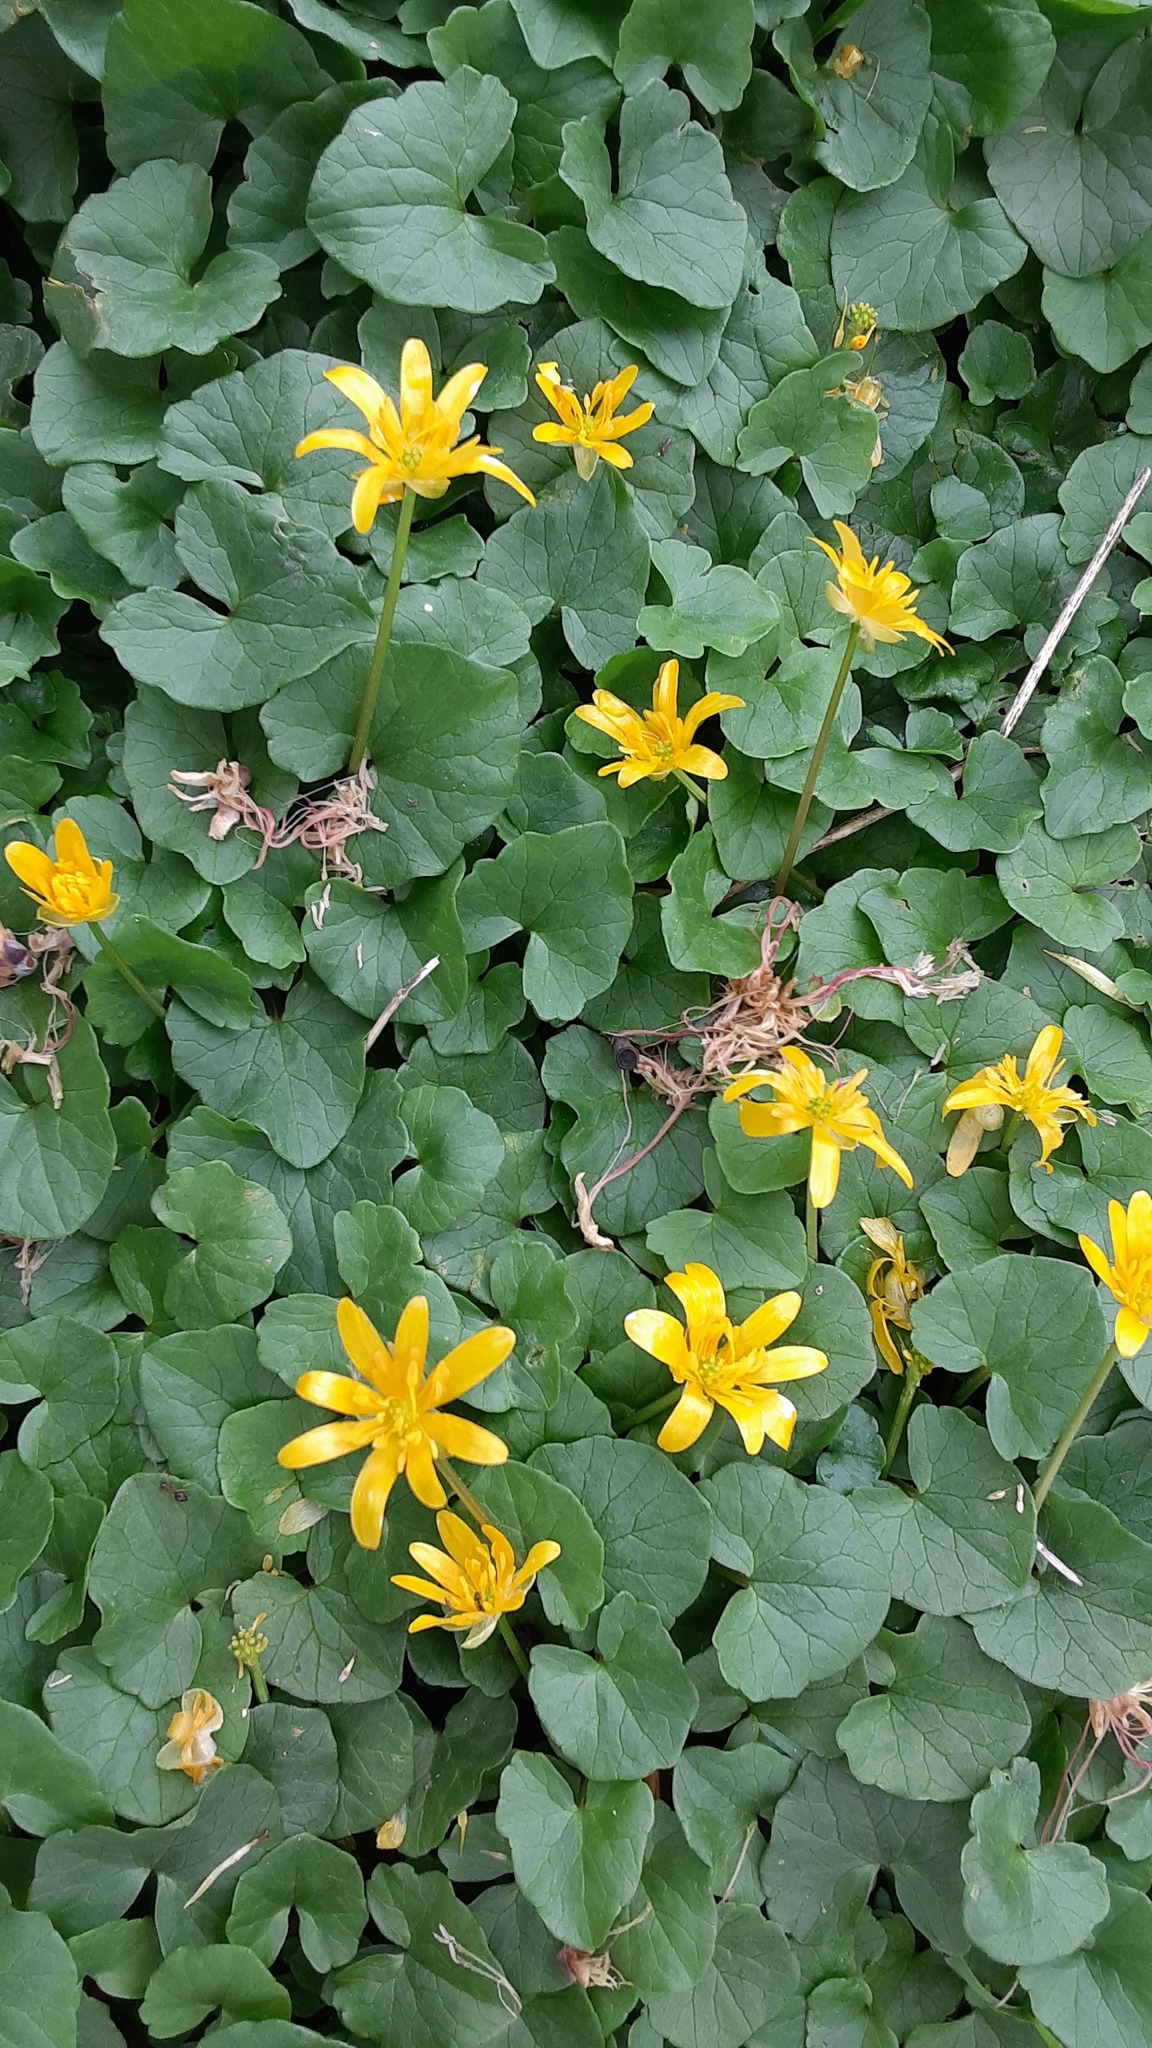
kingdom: Plantae
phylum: Tracheophyta
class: Magnoliopsida
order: Ranunculales
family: Ranunculaceae
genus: Ficaria
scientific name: Ficaria verna
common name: Lesser celandine
